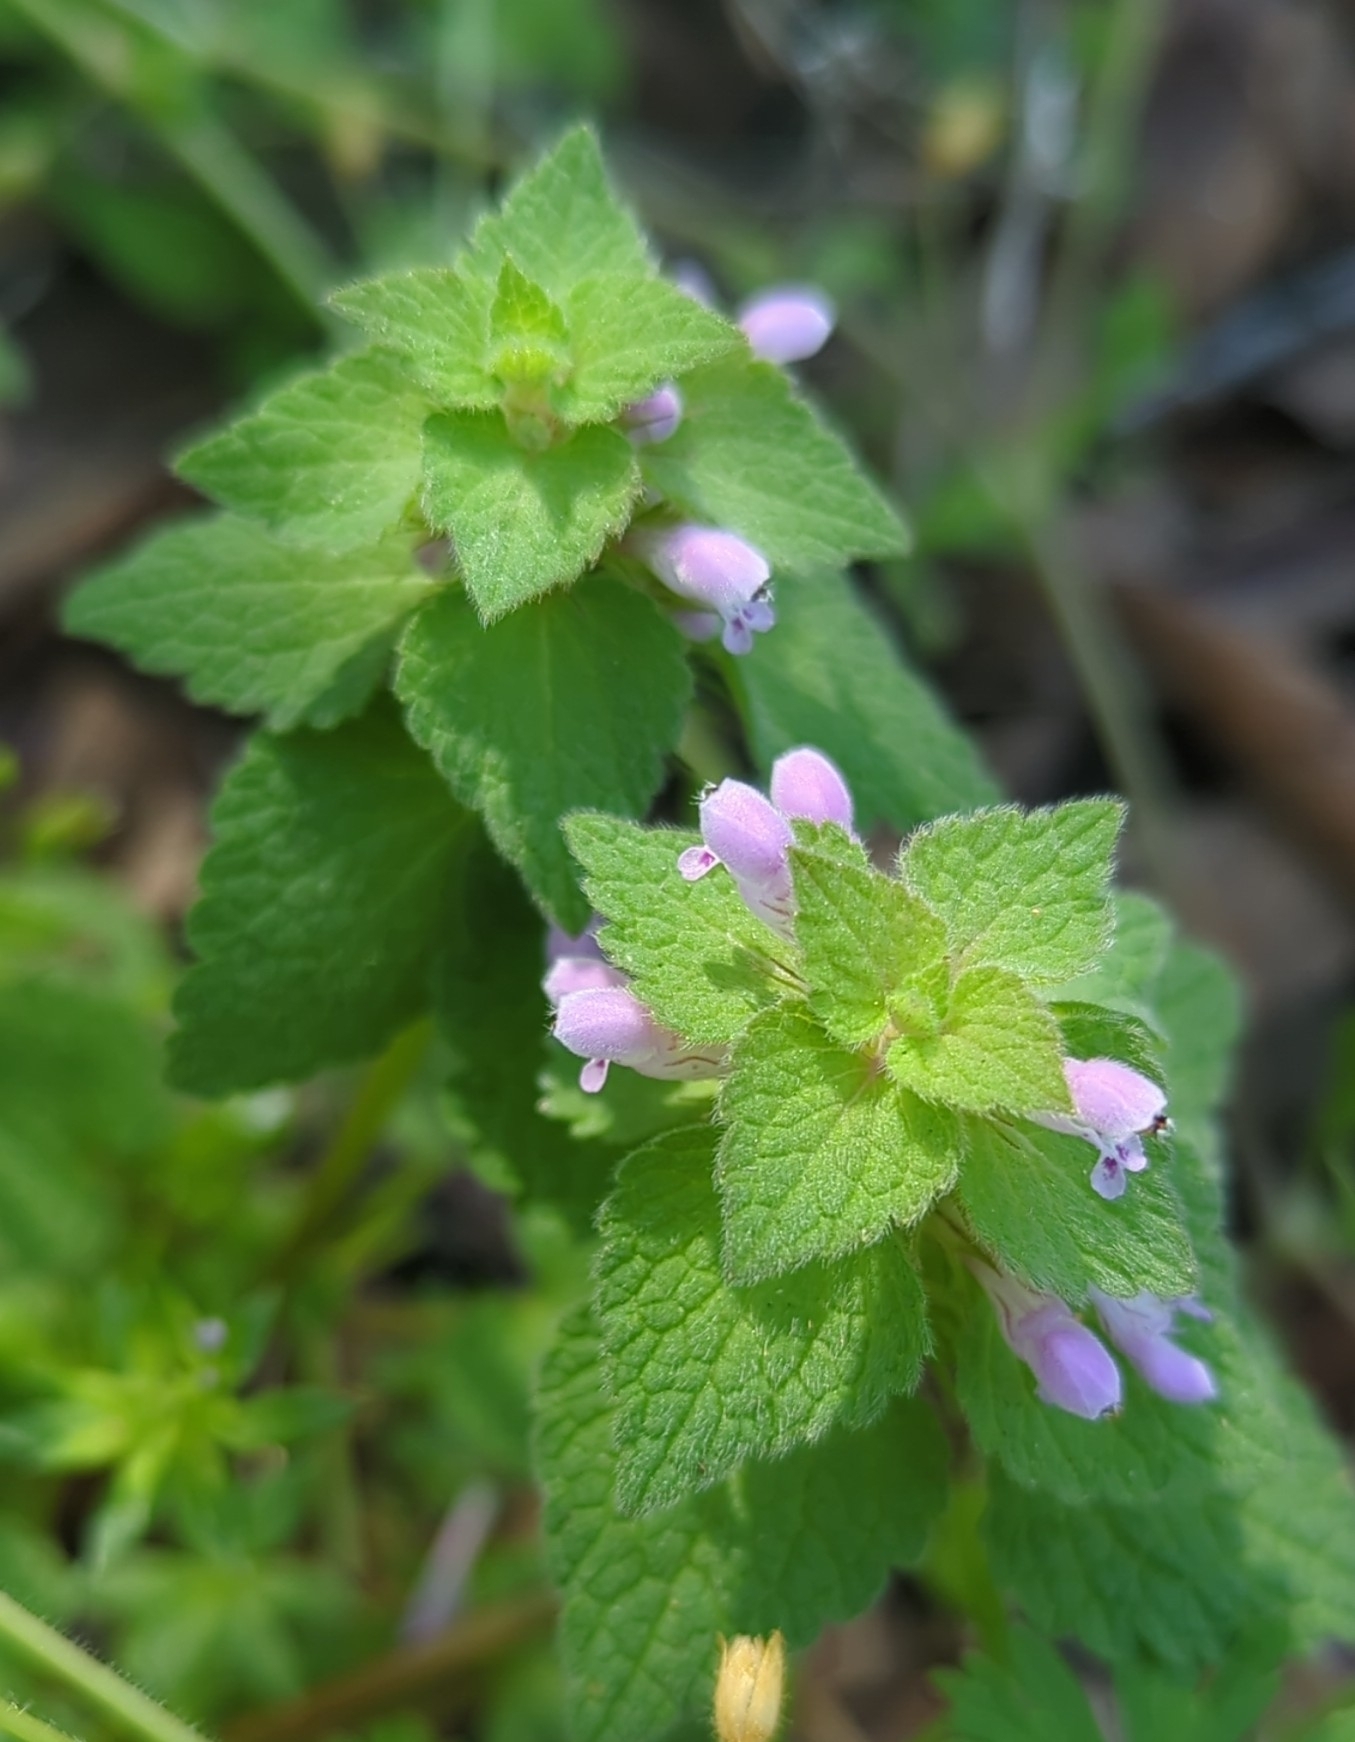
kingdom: Plantae
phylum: Tracheophyta
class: Magnoliopsida
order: Lamiales
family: Lamiaceae
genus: Lamium
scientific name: Lamium purpureum
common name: Red dead-nettle
